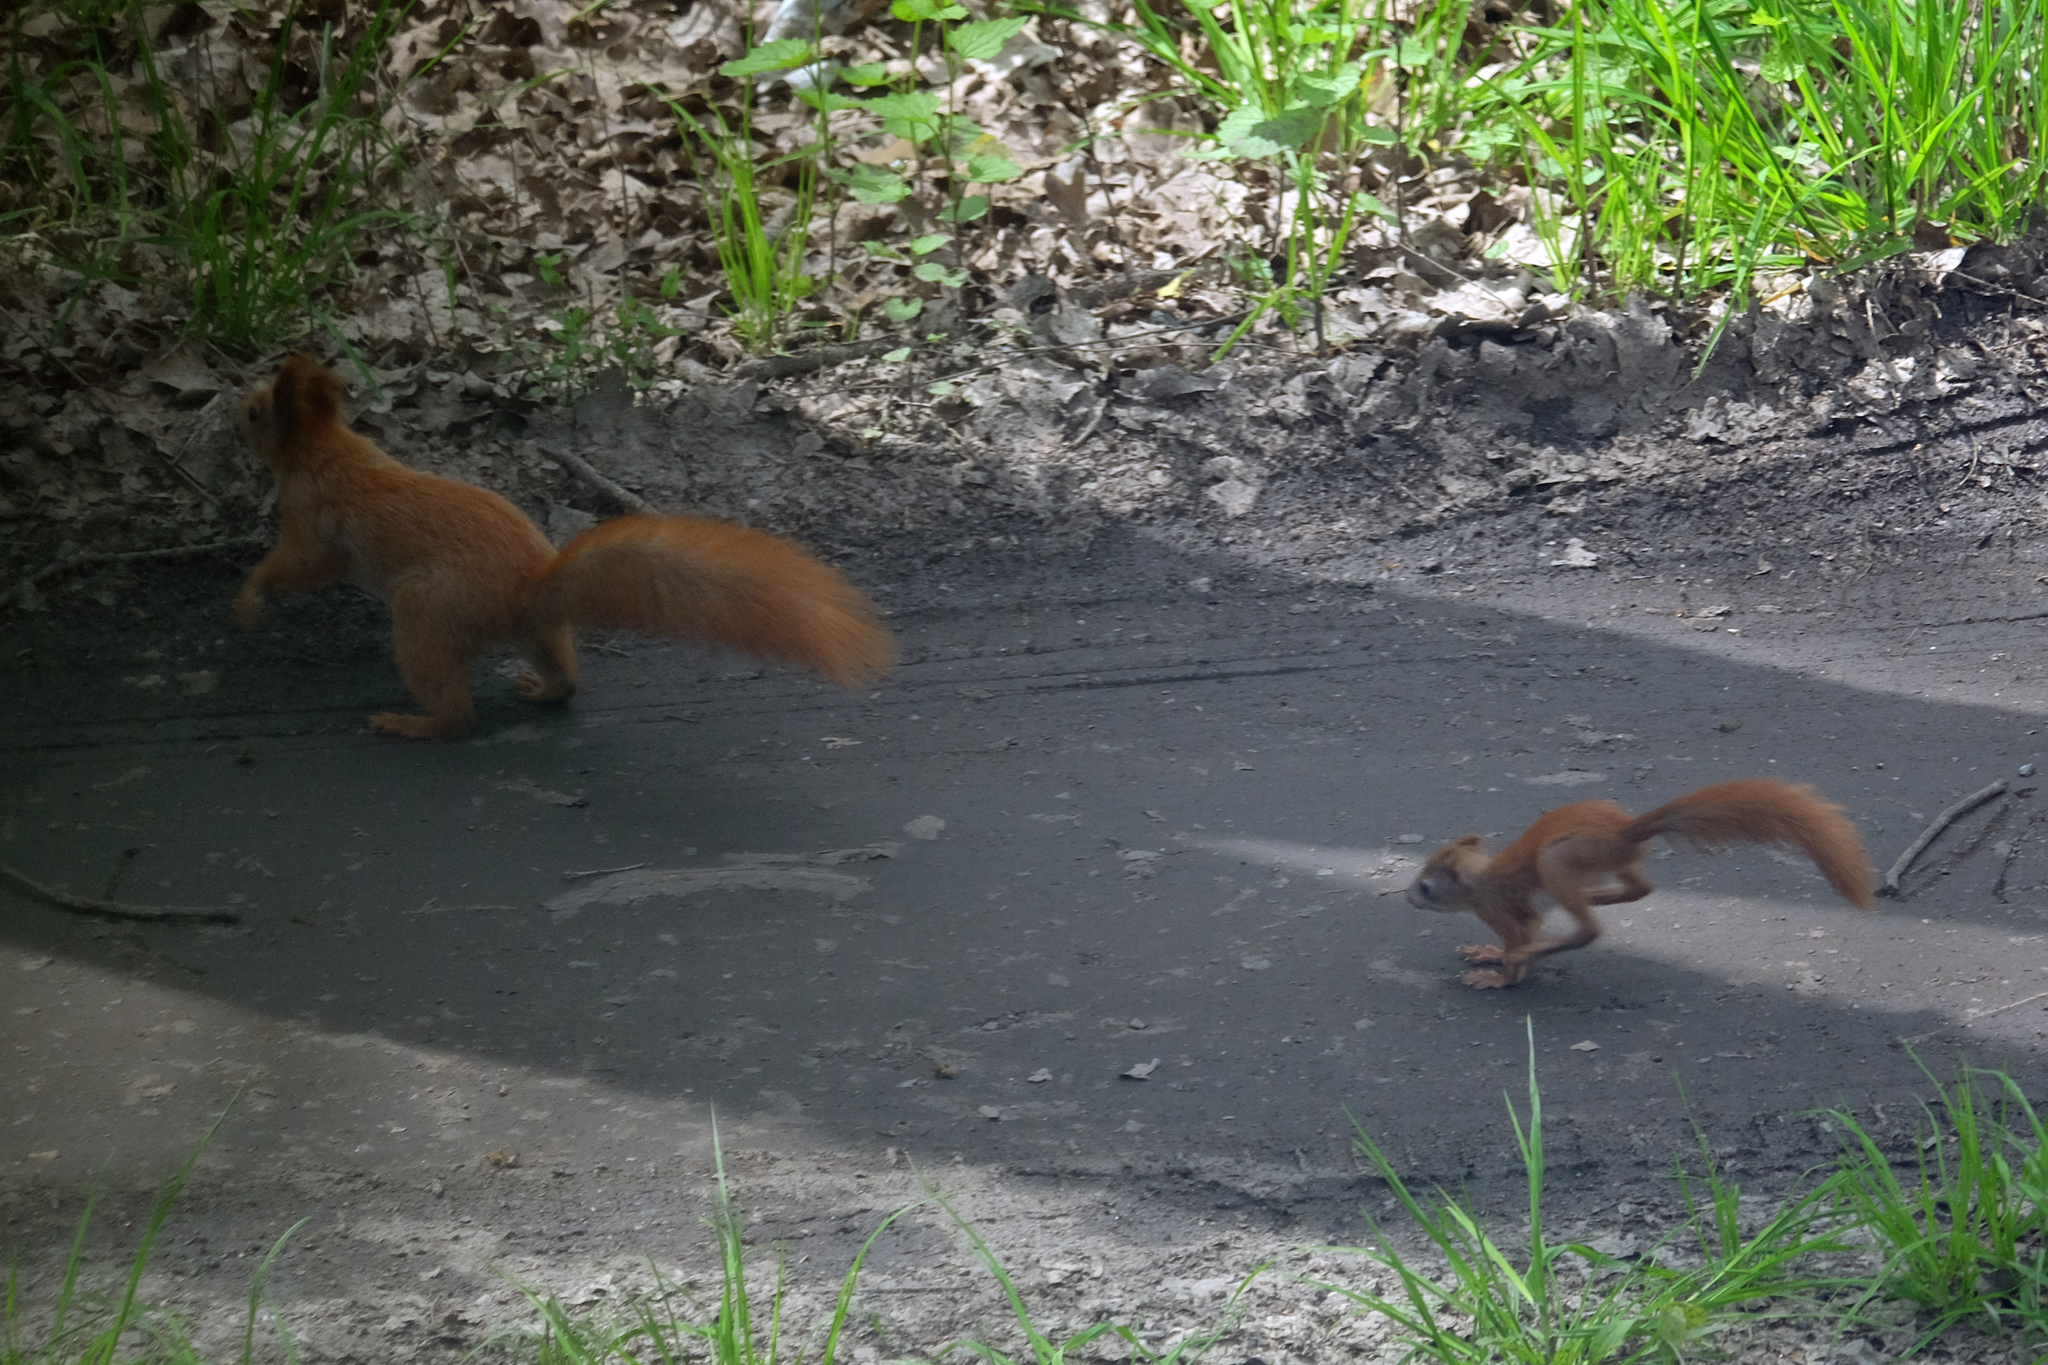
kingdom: Animalia
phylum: Chordata
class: Mammalia
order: Rodentia
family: Sciuridae
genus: Sciurus
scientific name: Sciurus vulgaris
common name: Eurasian red squirrel
